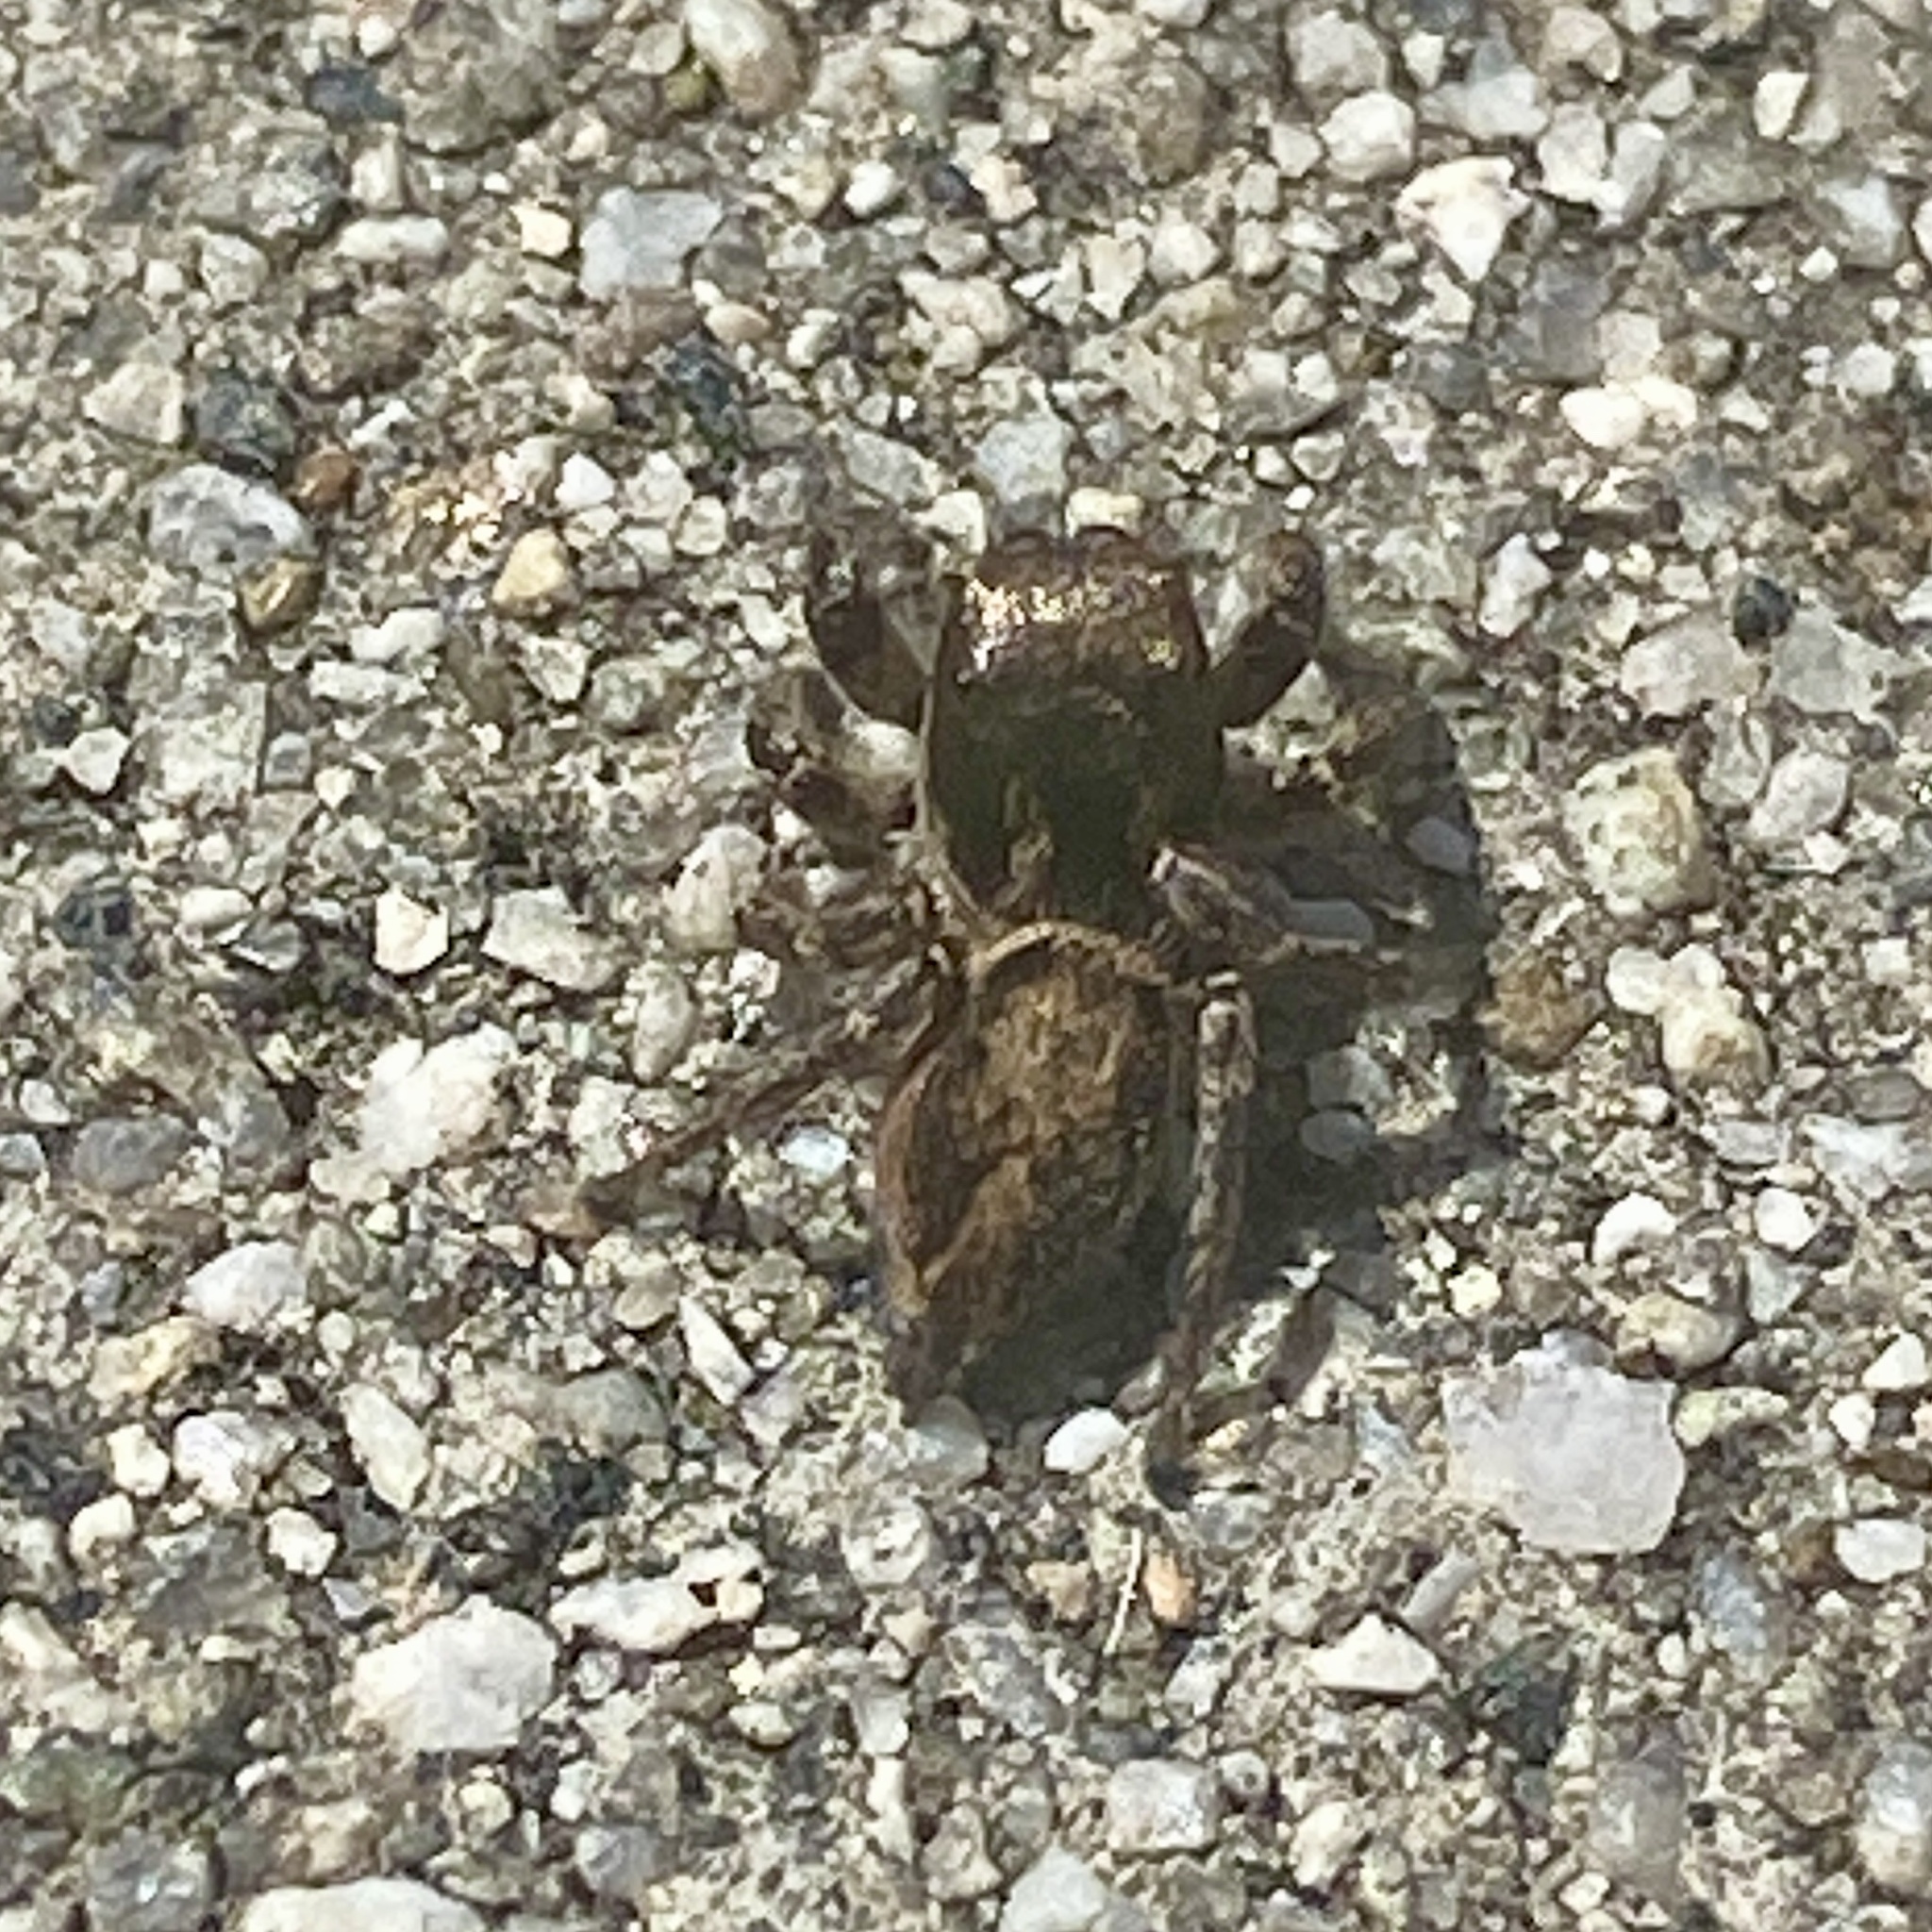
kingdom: Animalia
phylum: Arthropoda
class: Arachnida
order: Araneae
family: Salticidae
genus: Habronattus
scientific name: Habronattus pyrrithrix
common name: Jumping spider
